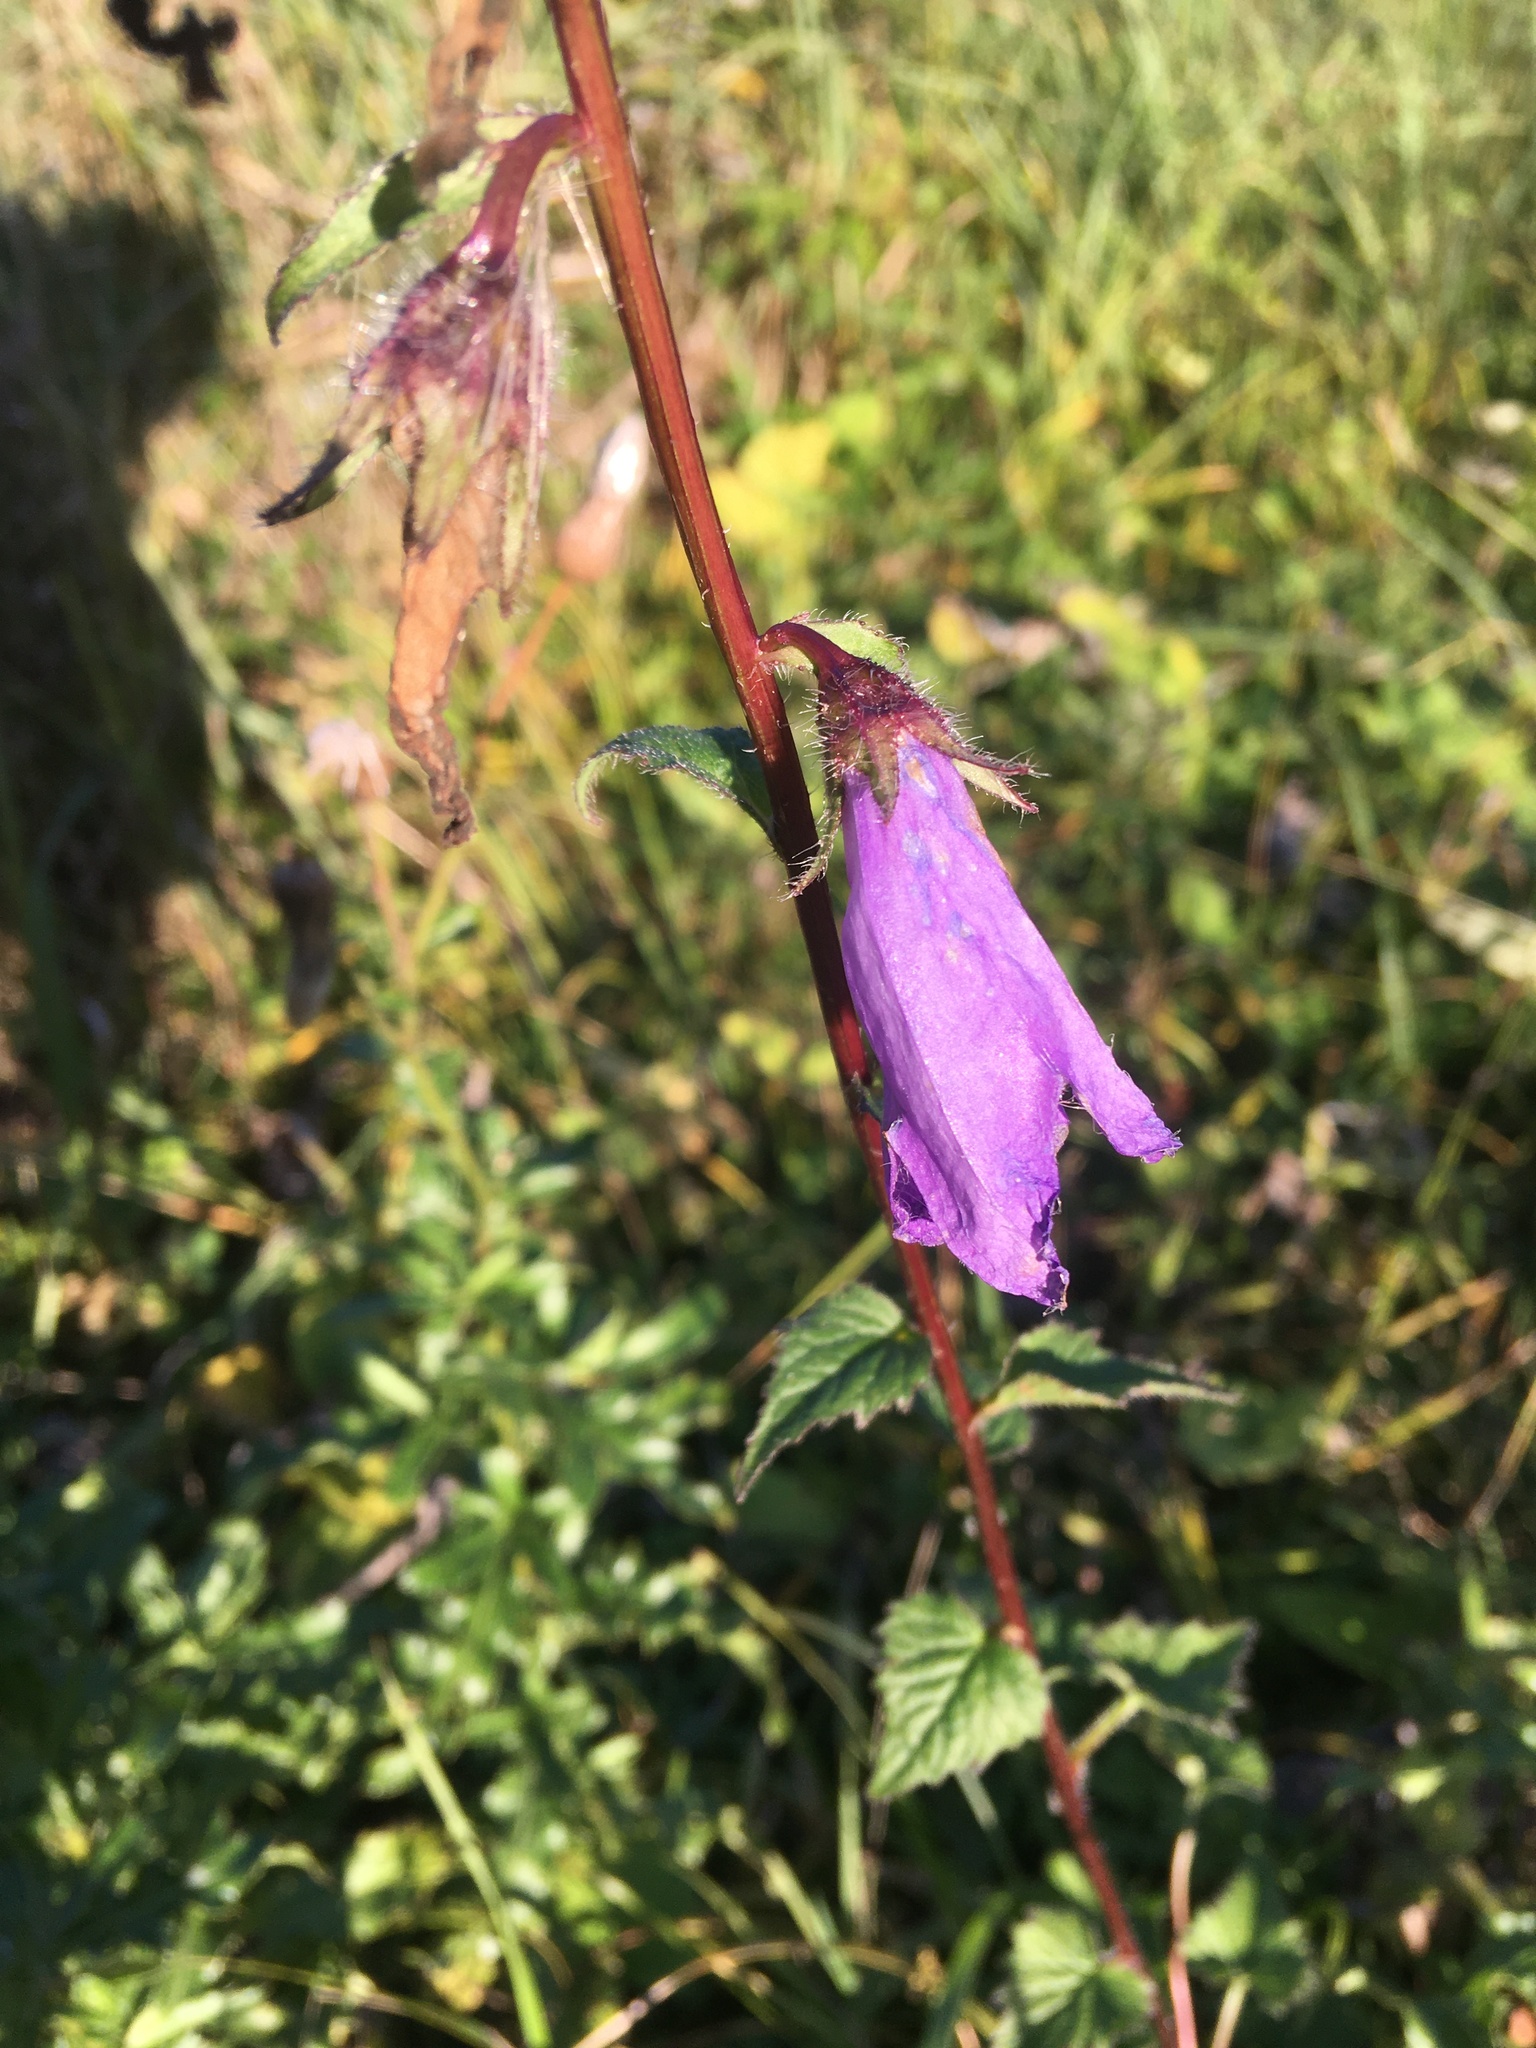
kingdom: Plantae
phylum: Tracheophyta
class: Magnoliopsida
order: Asterales
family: Campanulaceae
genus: Campanula
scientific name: Campanula trachelium
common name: Nettle-leaved bellflower
